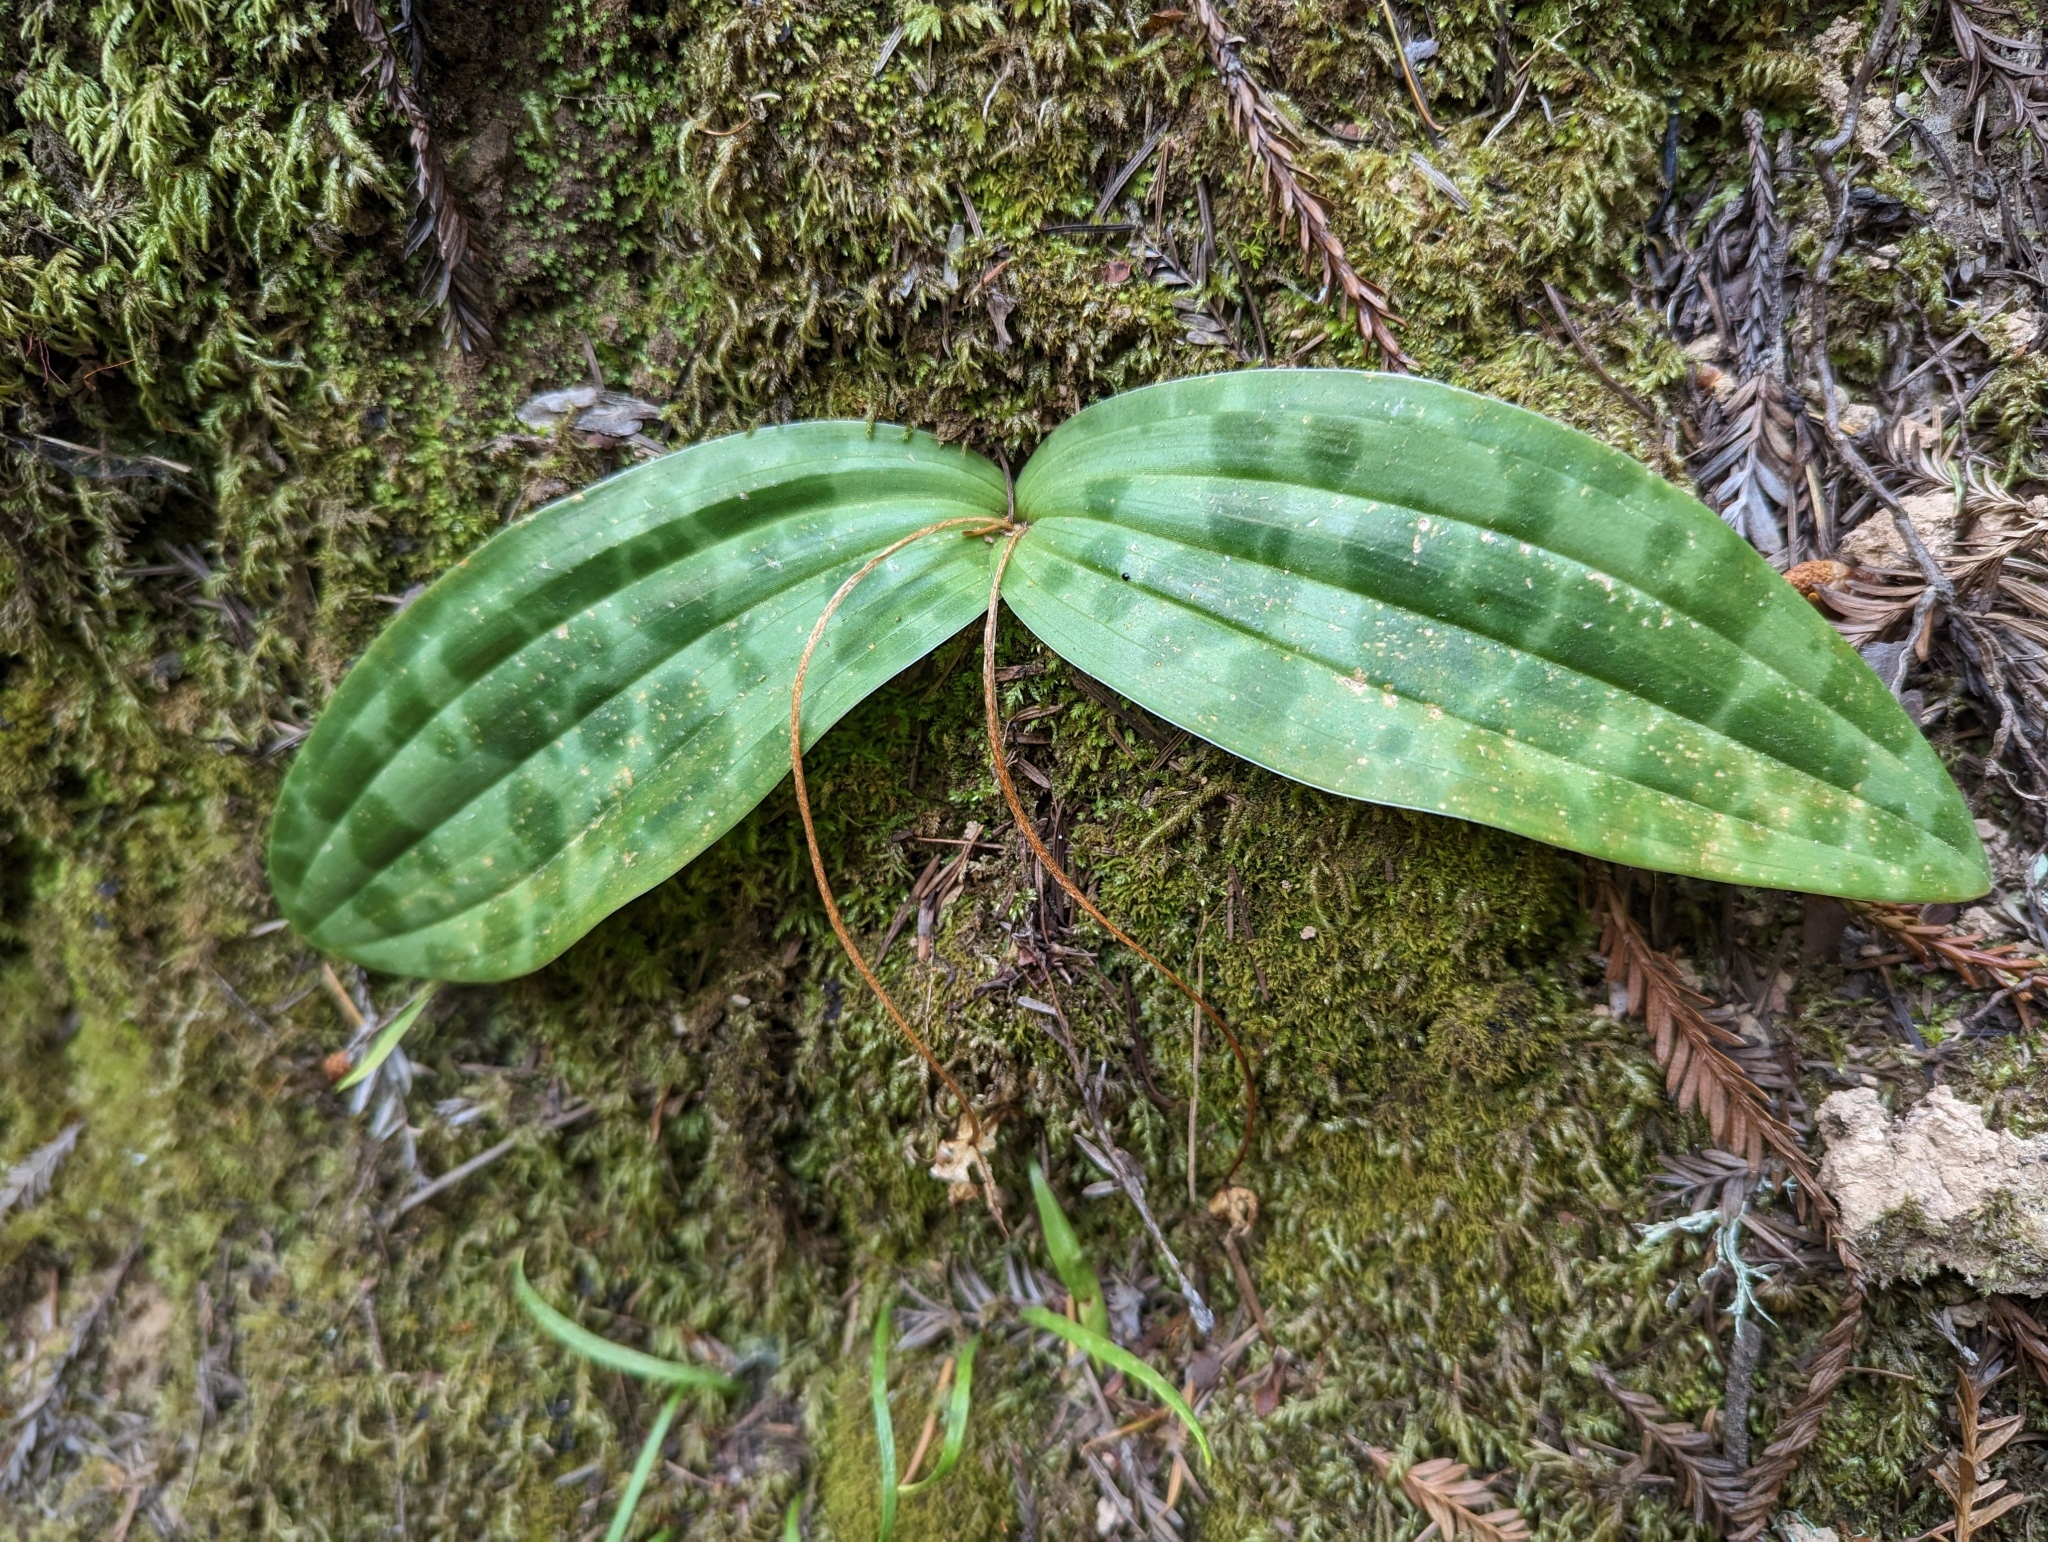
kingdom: Plantae
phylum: Tracheophyta
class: Liliopsida
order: Liliales
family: Liliaceae
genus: Scoliopus
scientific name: Scoliopus bigelovii
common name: Foetid adder's-tongue
